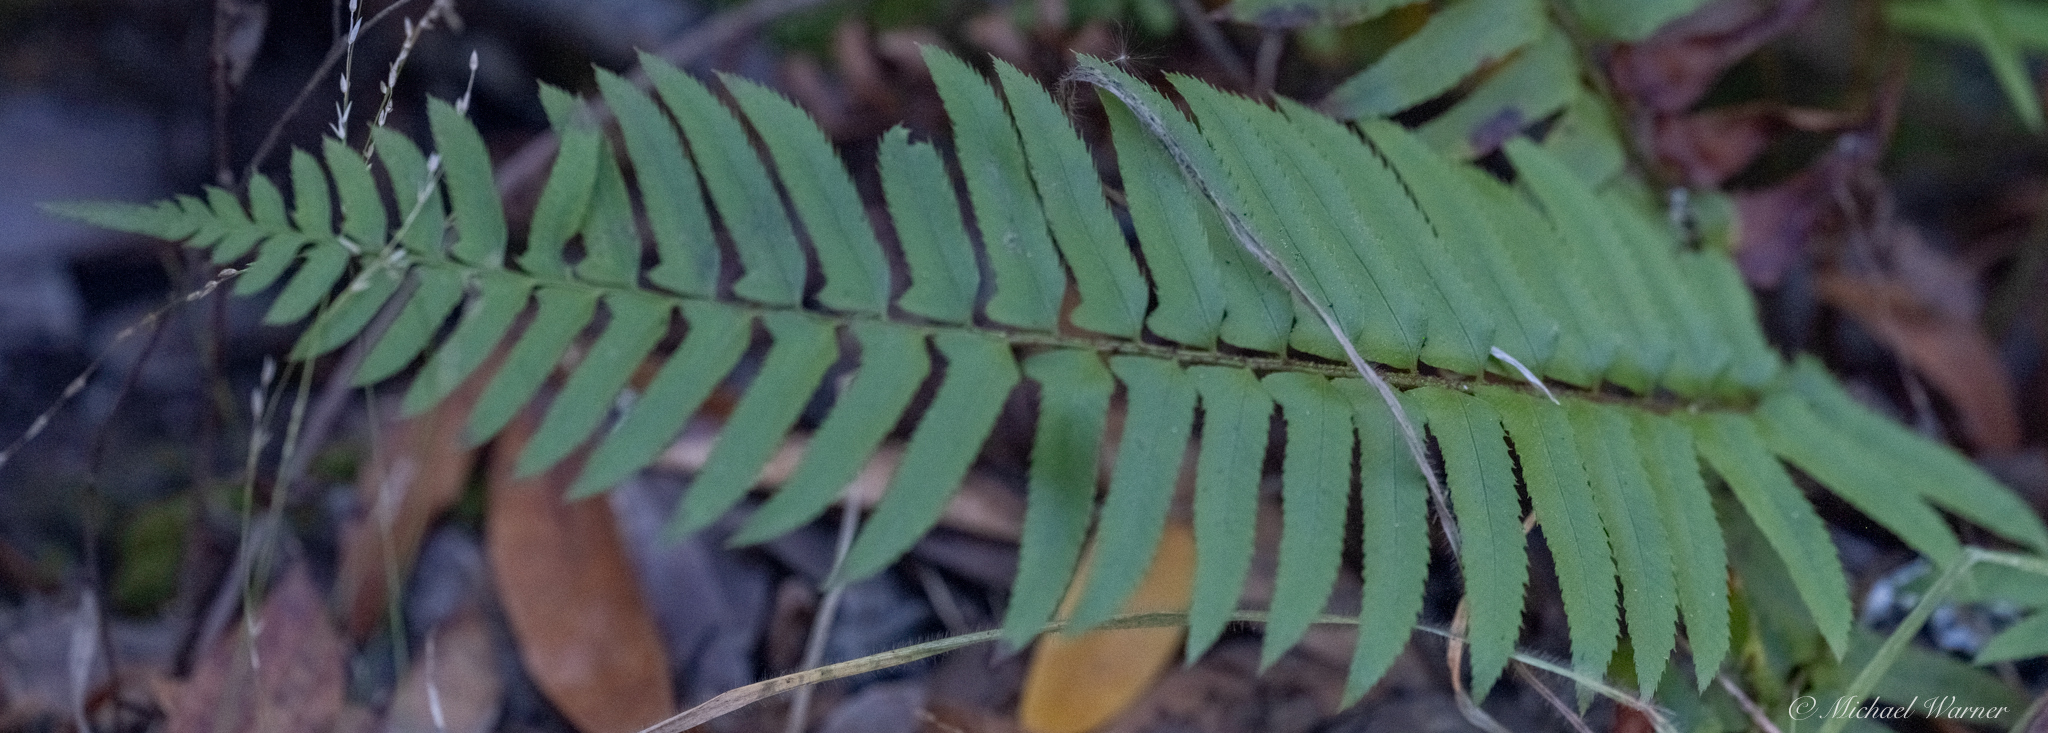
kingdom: Plantae
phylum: Tracheophyta
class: Polypodiopsida
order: Polypodiales
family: Dryopteridaceae
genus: Polystichum
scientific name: Polystichum munitum
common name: Western sword-fern
